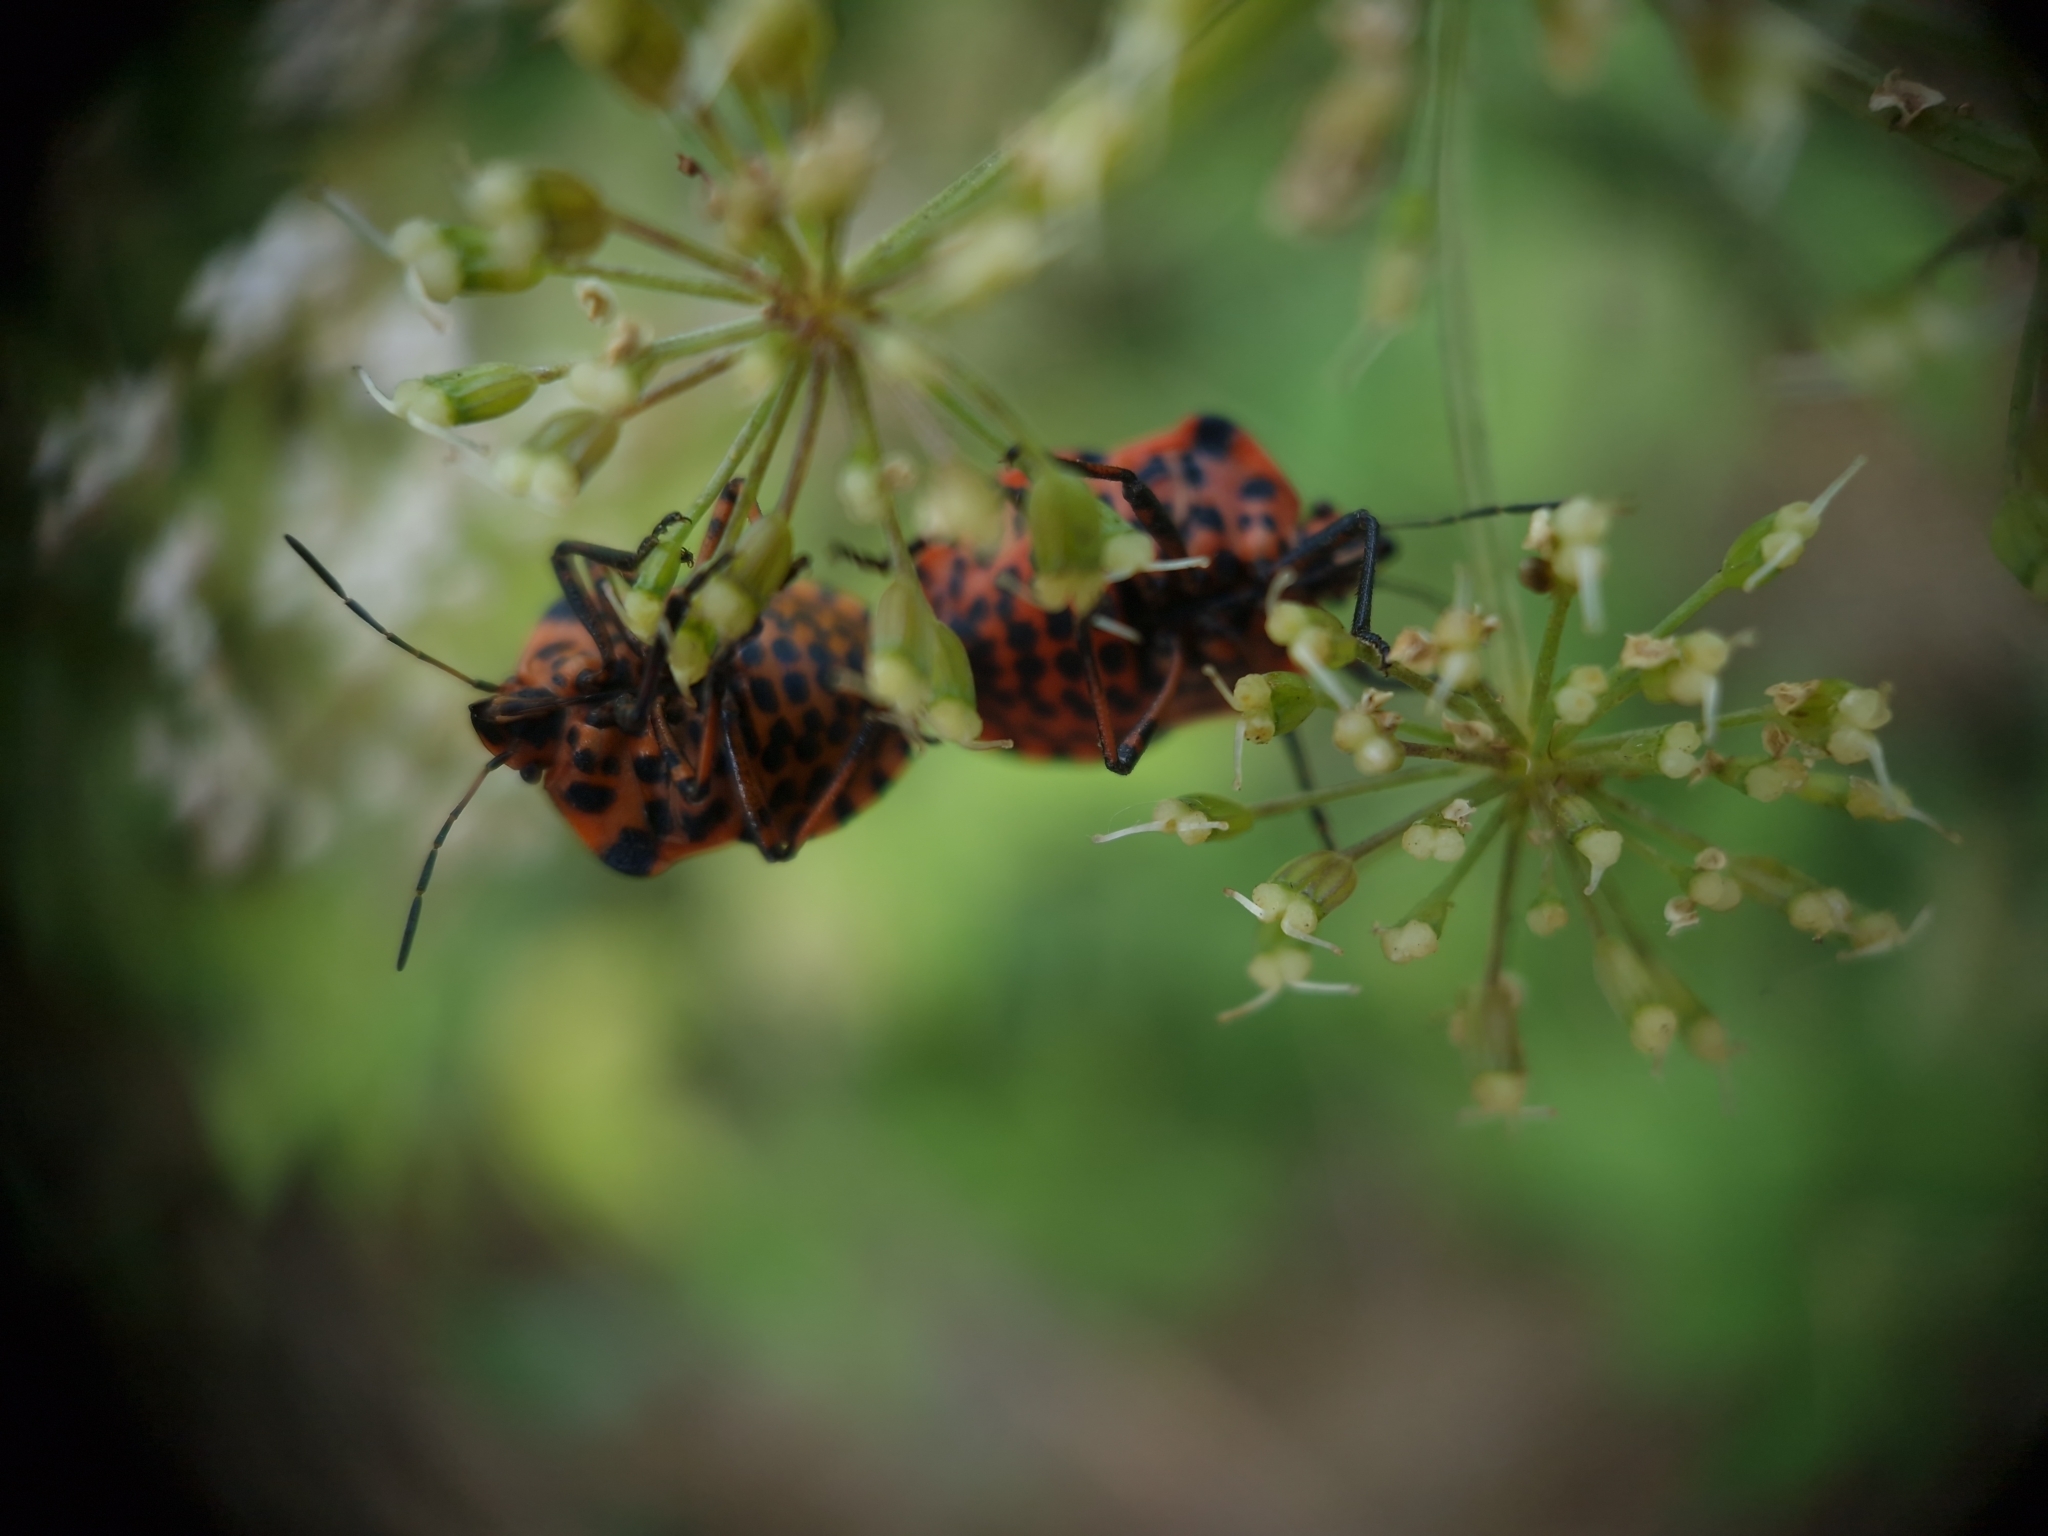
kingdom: Animalia
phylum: Arthropoda
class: Insecta
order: Hemiptera
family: Pentatomidae
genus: Graphosoma
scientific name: Graphosoma italicum
